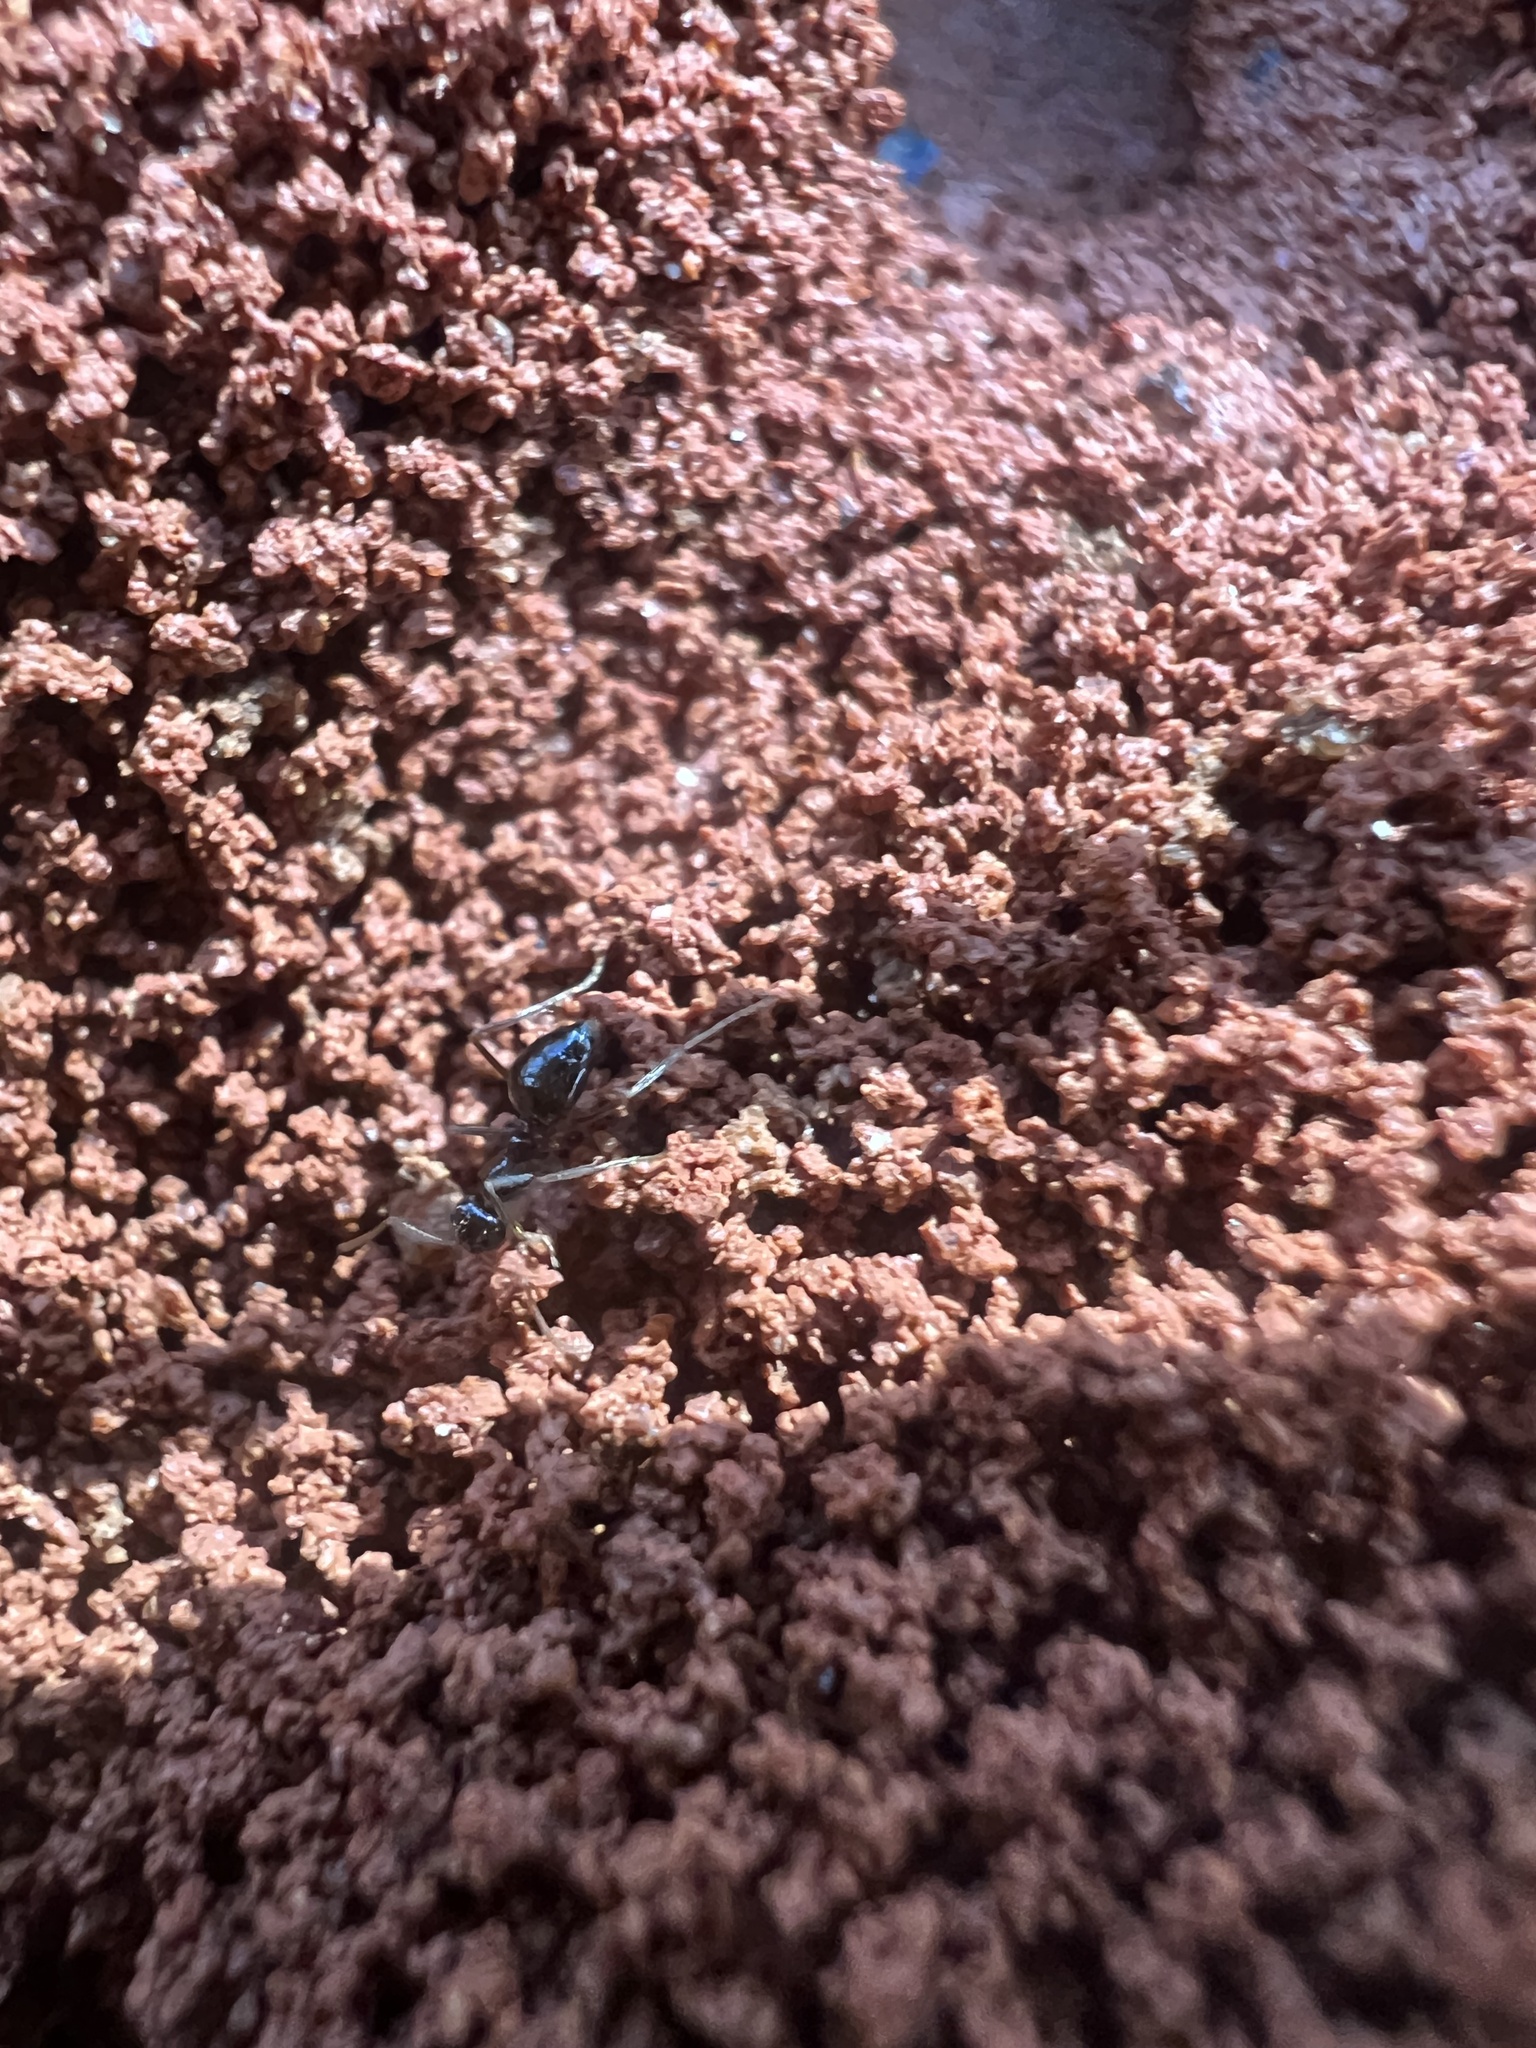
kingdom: Animalia
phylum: Arthropoda
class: Insecta
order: Hymenoptera
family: Formicidae
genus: Prenolepis
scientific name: Prenolepis imparis
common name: Small honey ant
